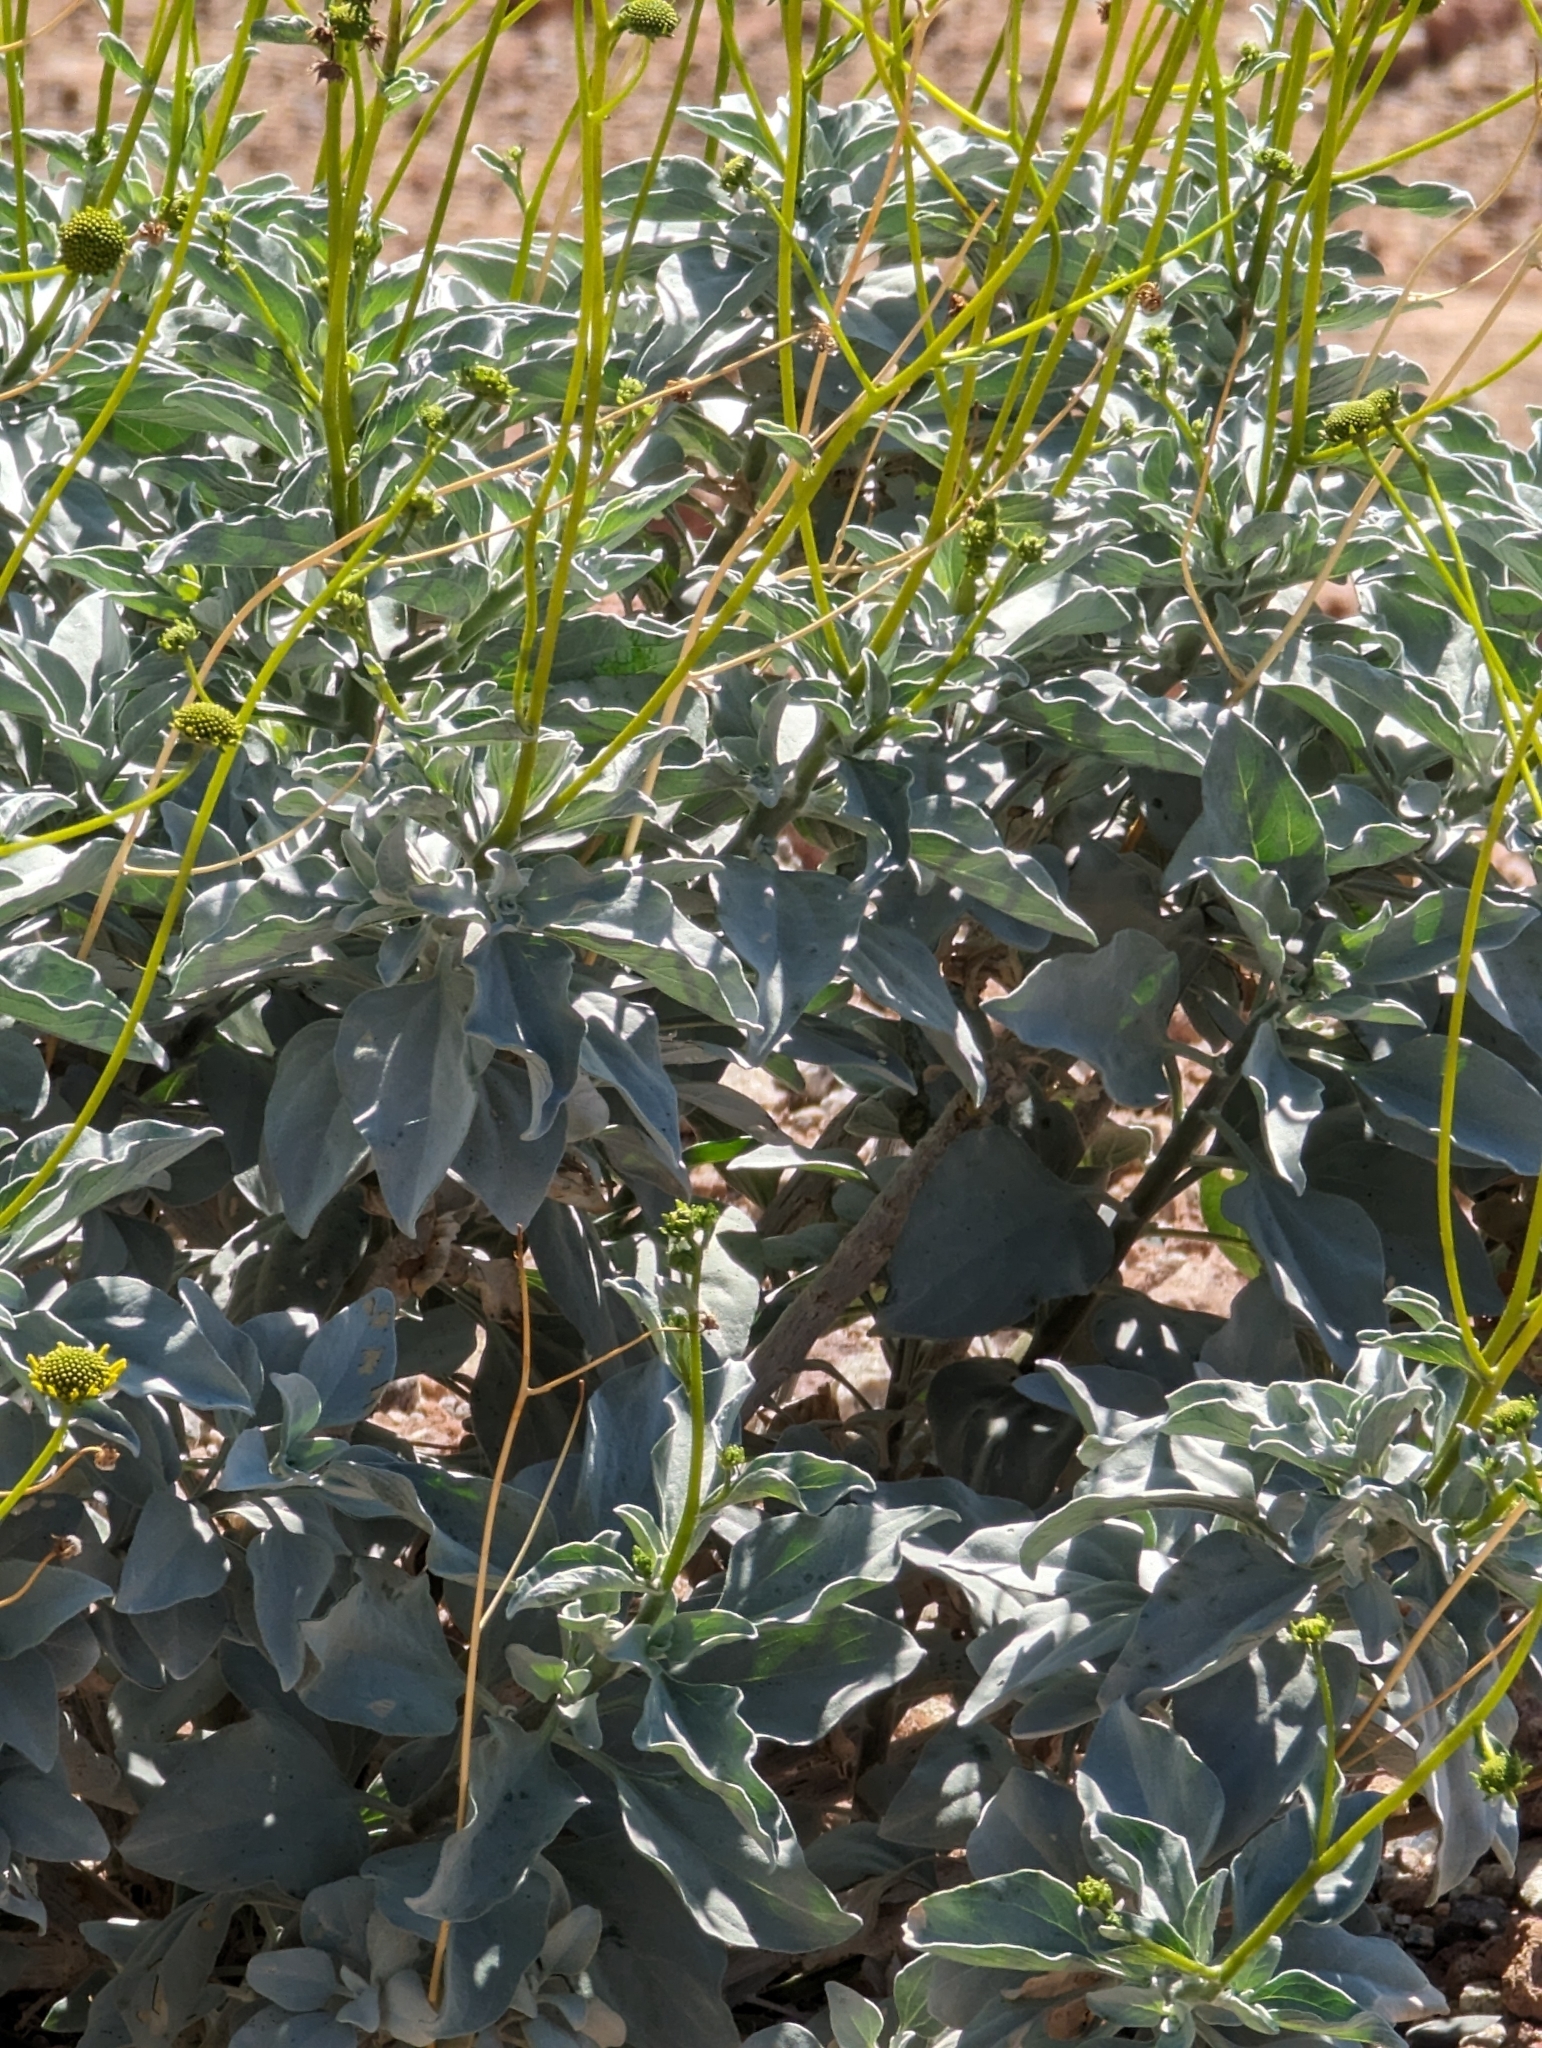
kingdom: Plantae
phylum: Tracheophyta
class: Magnoliopsida
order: Asterales
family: Asteraceae
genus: Encelia
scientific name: Encelia farinosa
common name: Brittlebush
